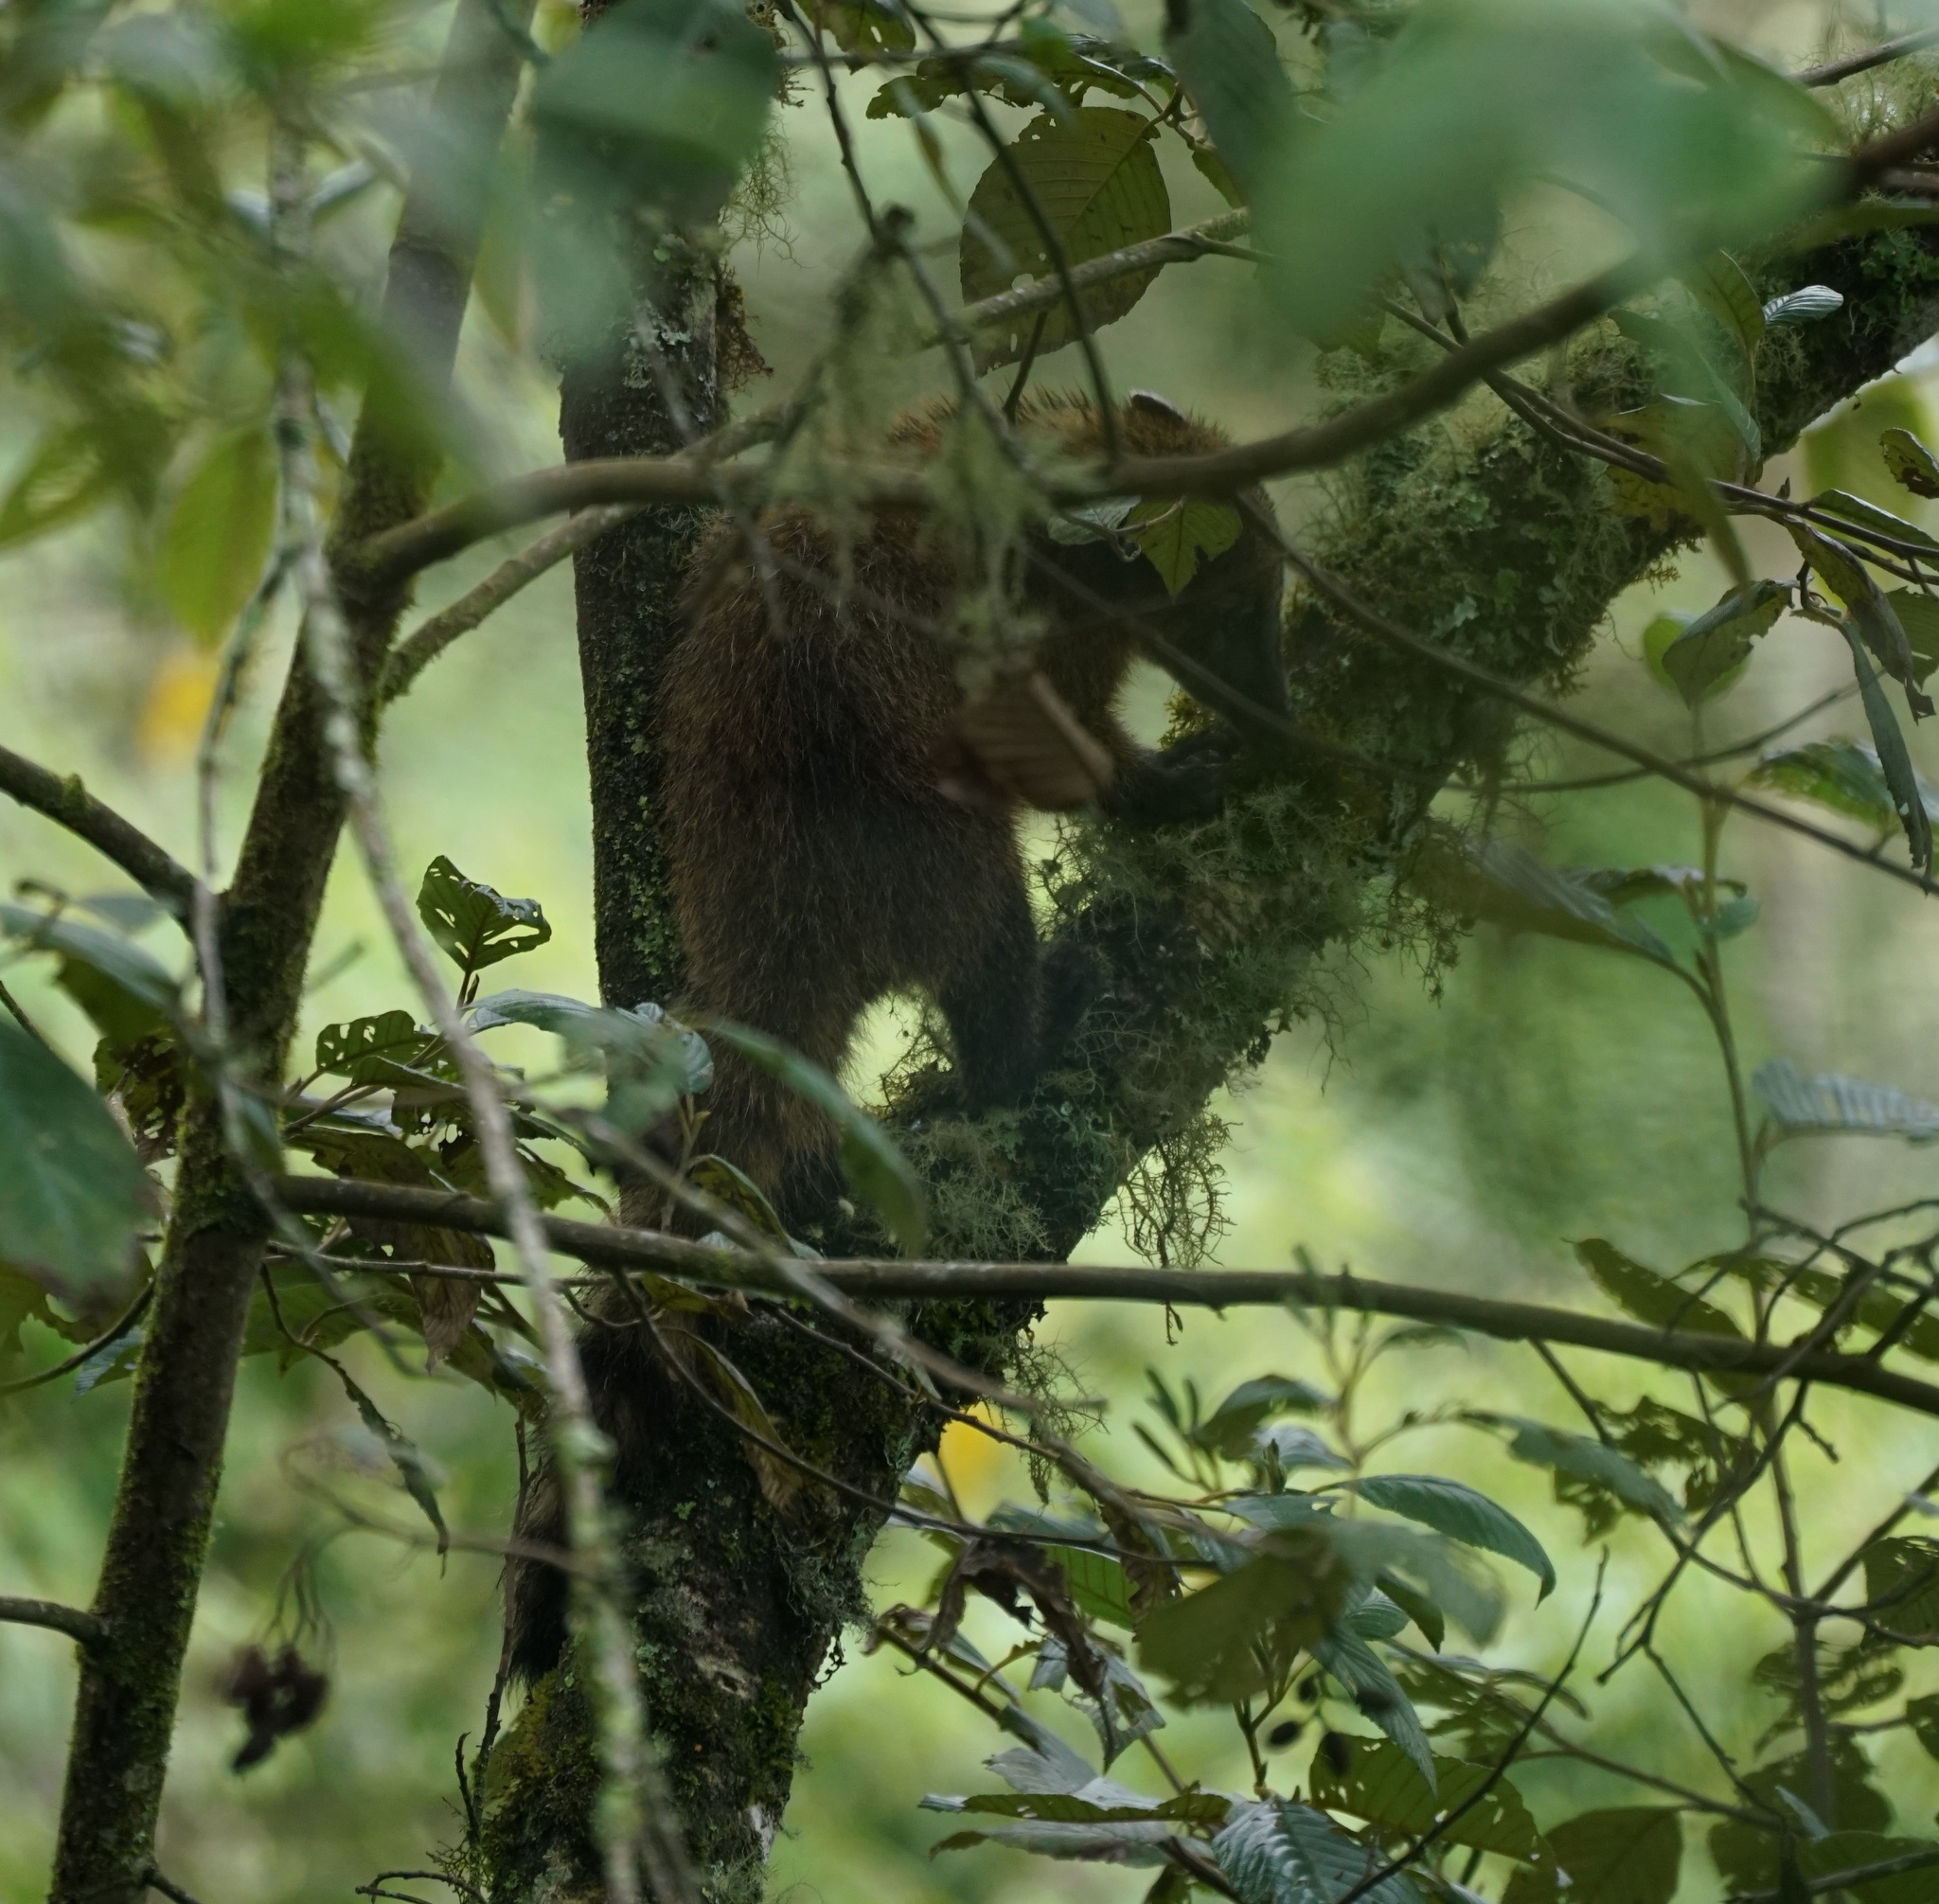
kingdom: Animalia
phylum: Chordata
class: Mammalia
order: Carnivora
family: Procyonidae
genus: Nasua
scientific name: Nasua olivacea
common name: Mountain coati
